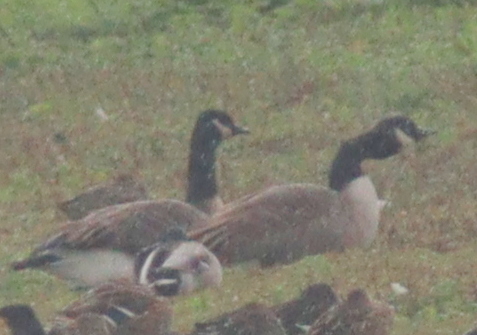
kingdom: Animalia
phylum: Chordata
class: Aves
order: Anseriformes
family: Anatidae
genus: Branta
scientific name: Branta canadensis
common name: Canada goose
